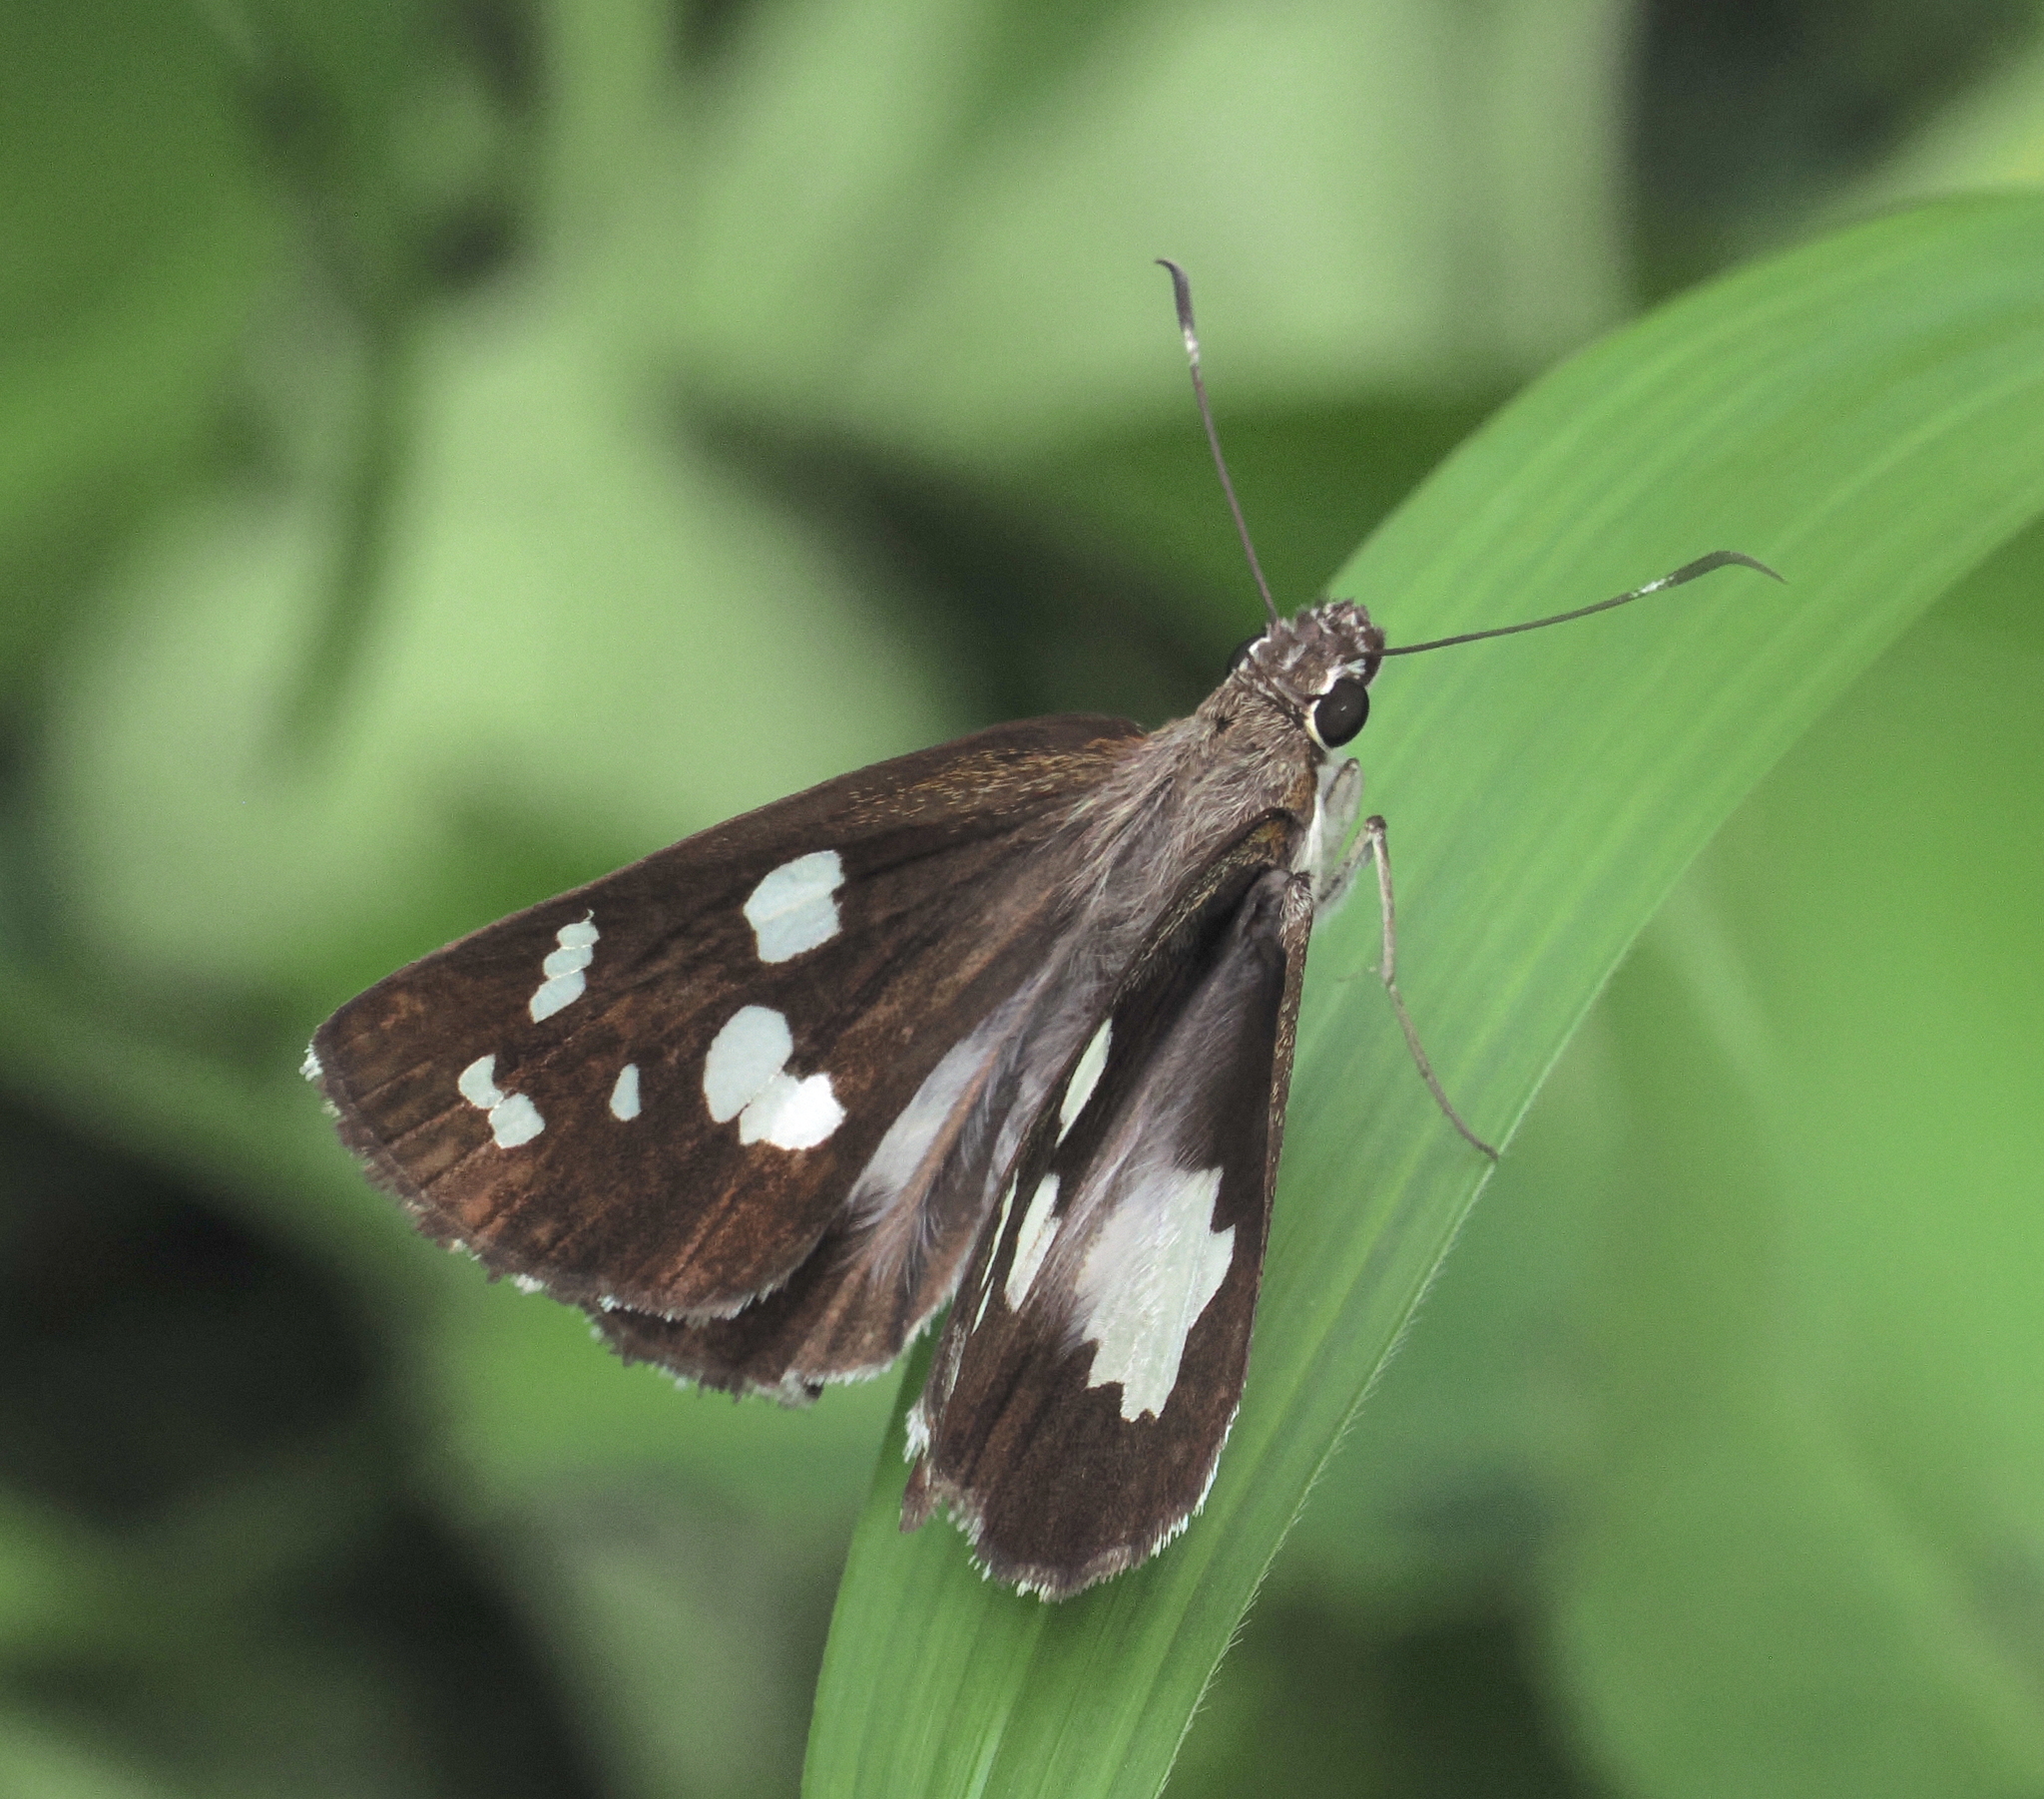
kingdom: Animalia
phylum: Arthropoda
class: Insecta
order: Lepidoptera
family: Hesperiidae
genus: Udaspes
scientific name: Udaspes folus
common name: Grass demon
